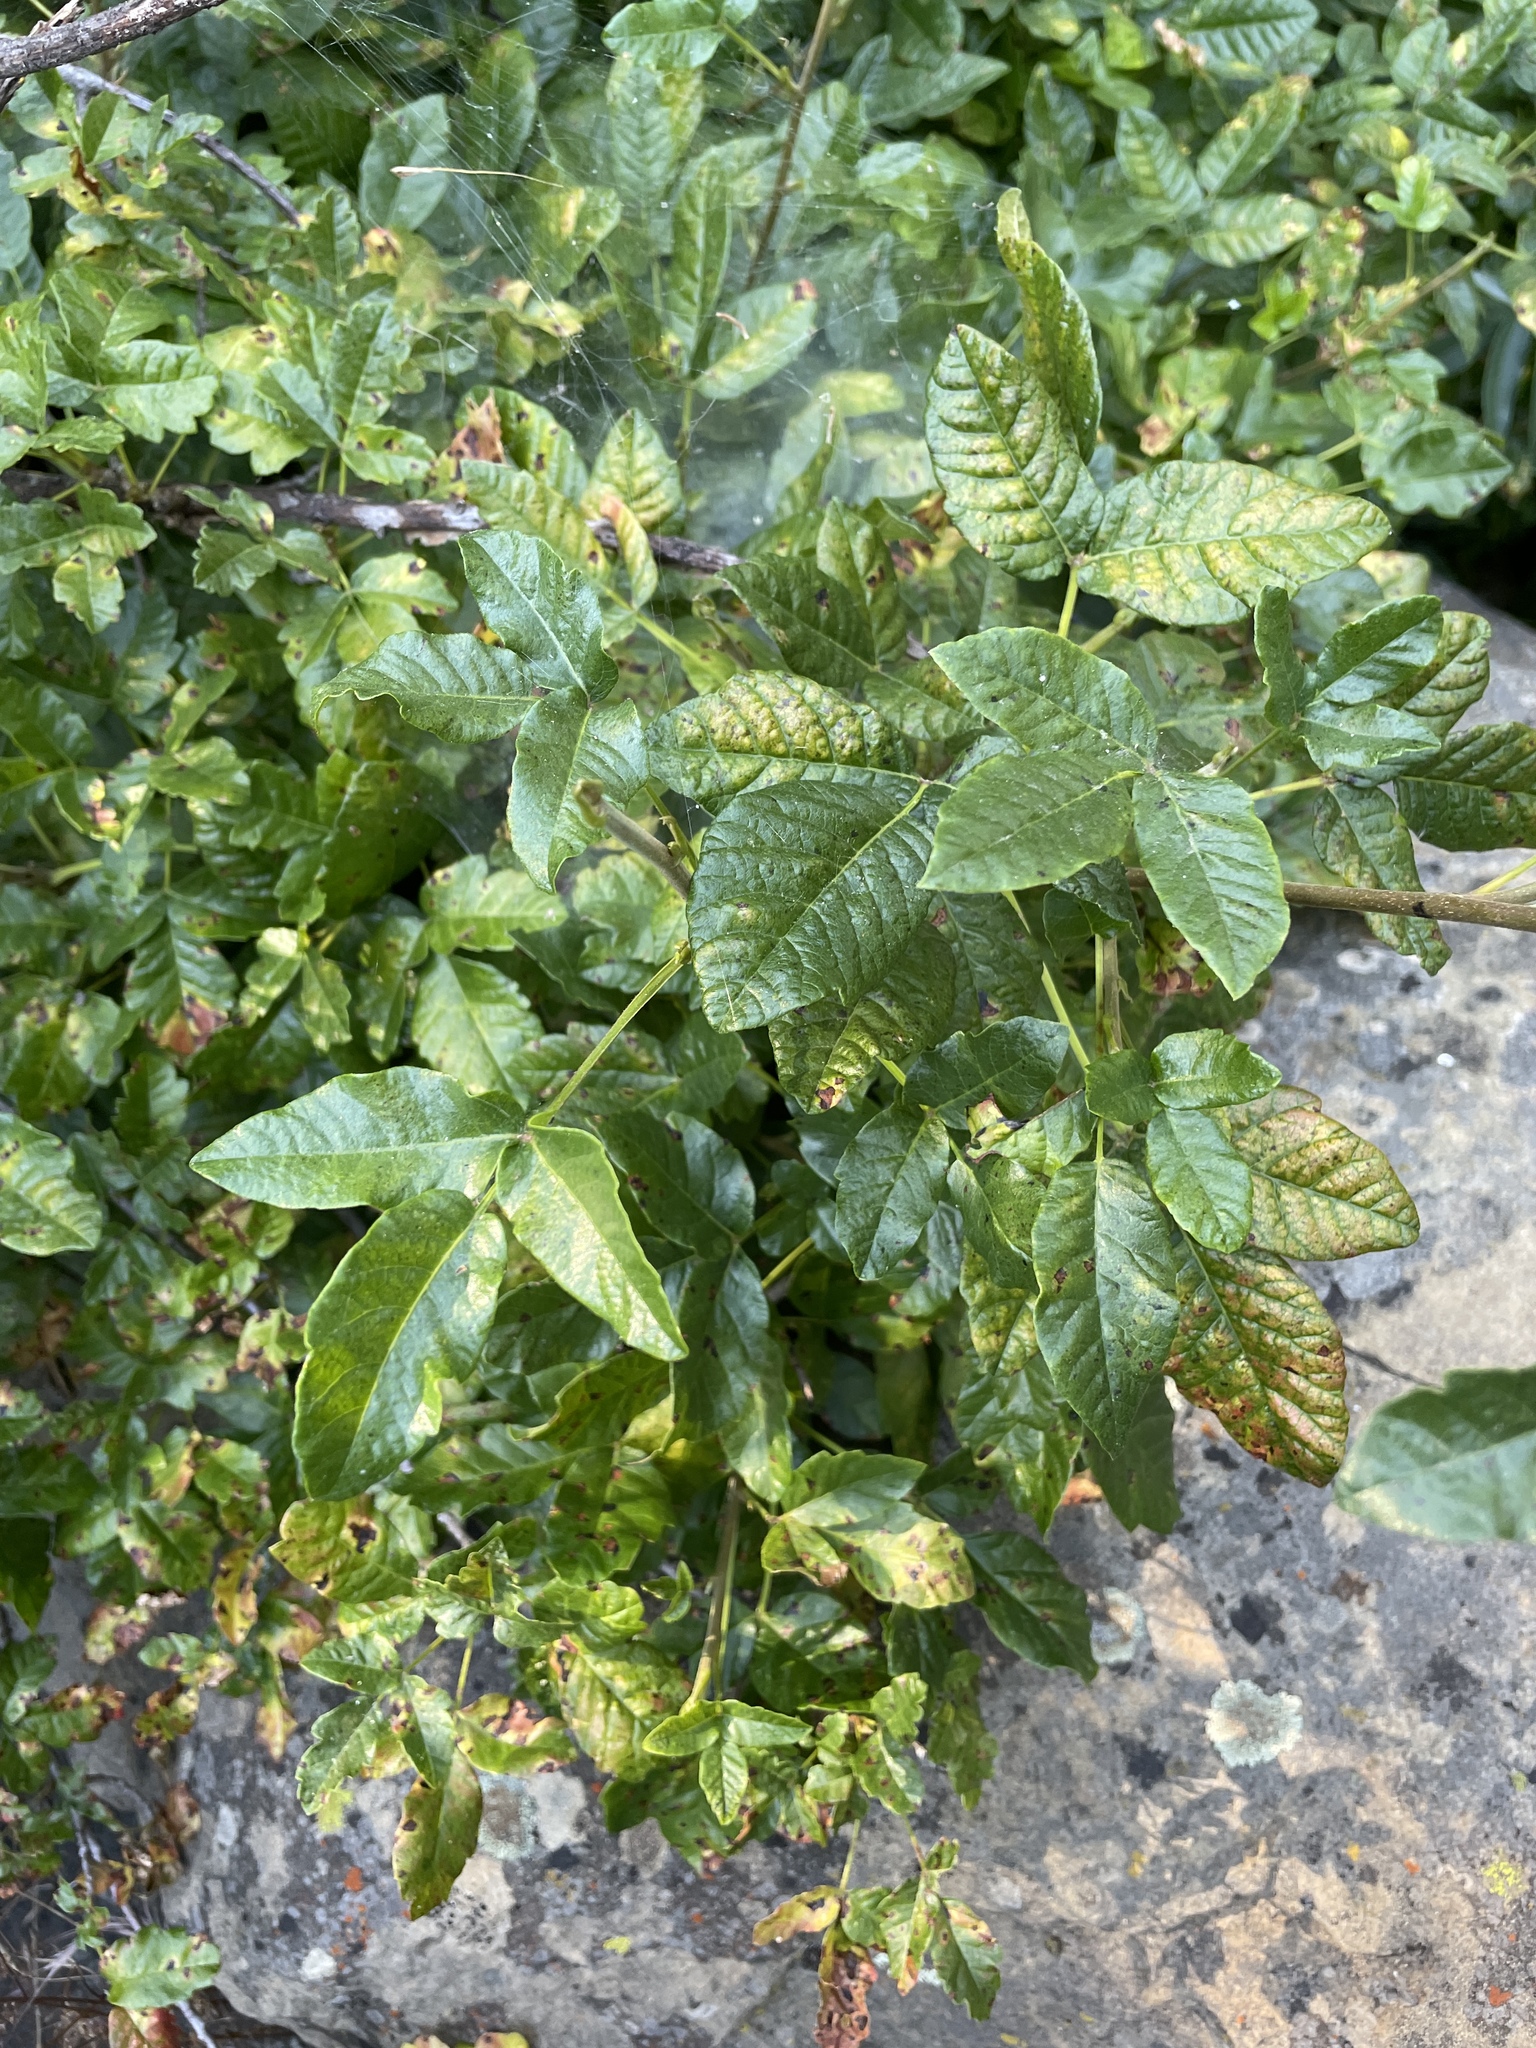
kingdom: Plantae
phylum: Tracheophyta
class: Magnoliopsida
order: Sapindales
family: Anacardiaceae
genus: Toxicodendron
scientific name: Toxicodendron diversilobum
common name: Pacific poison-oak
